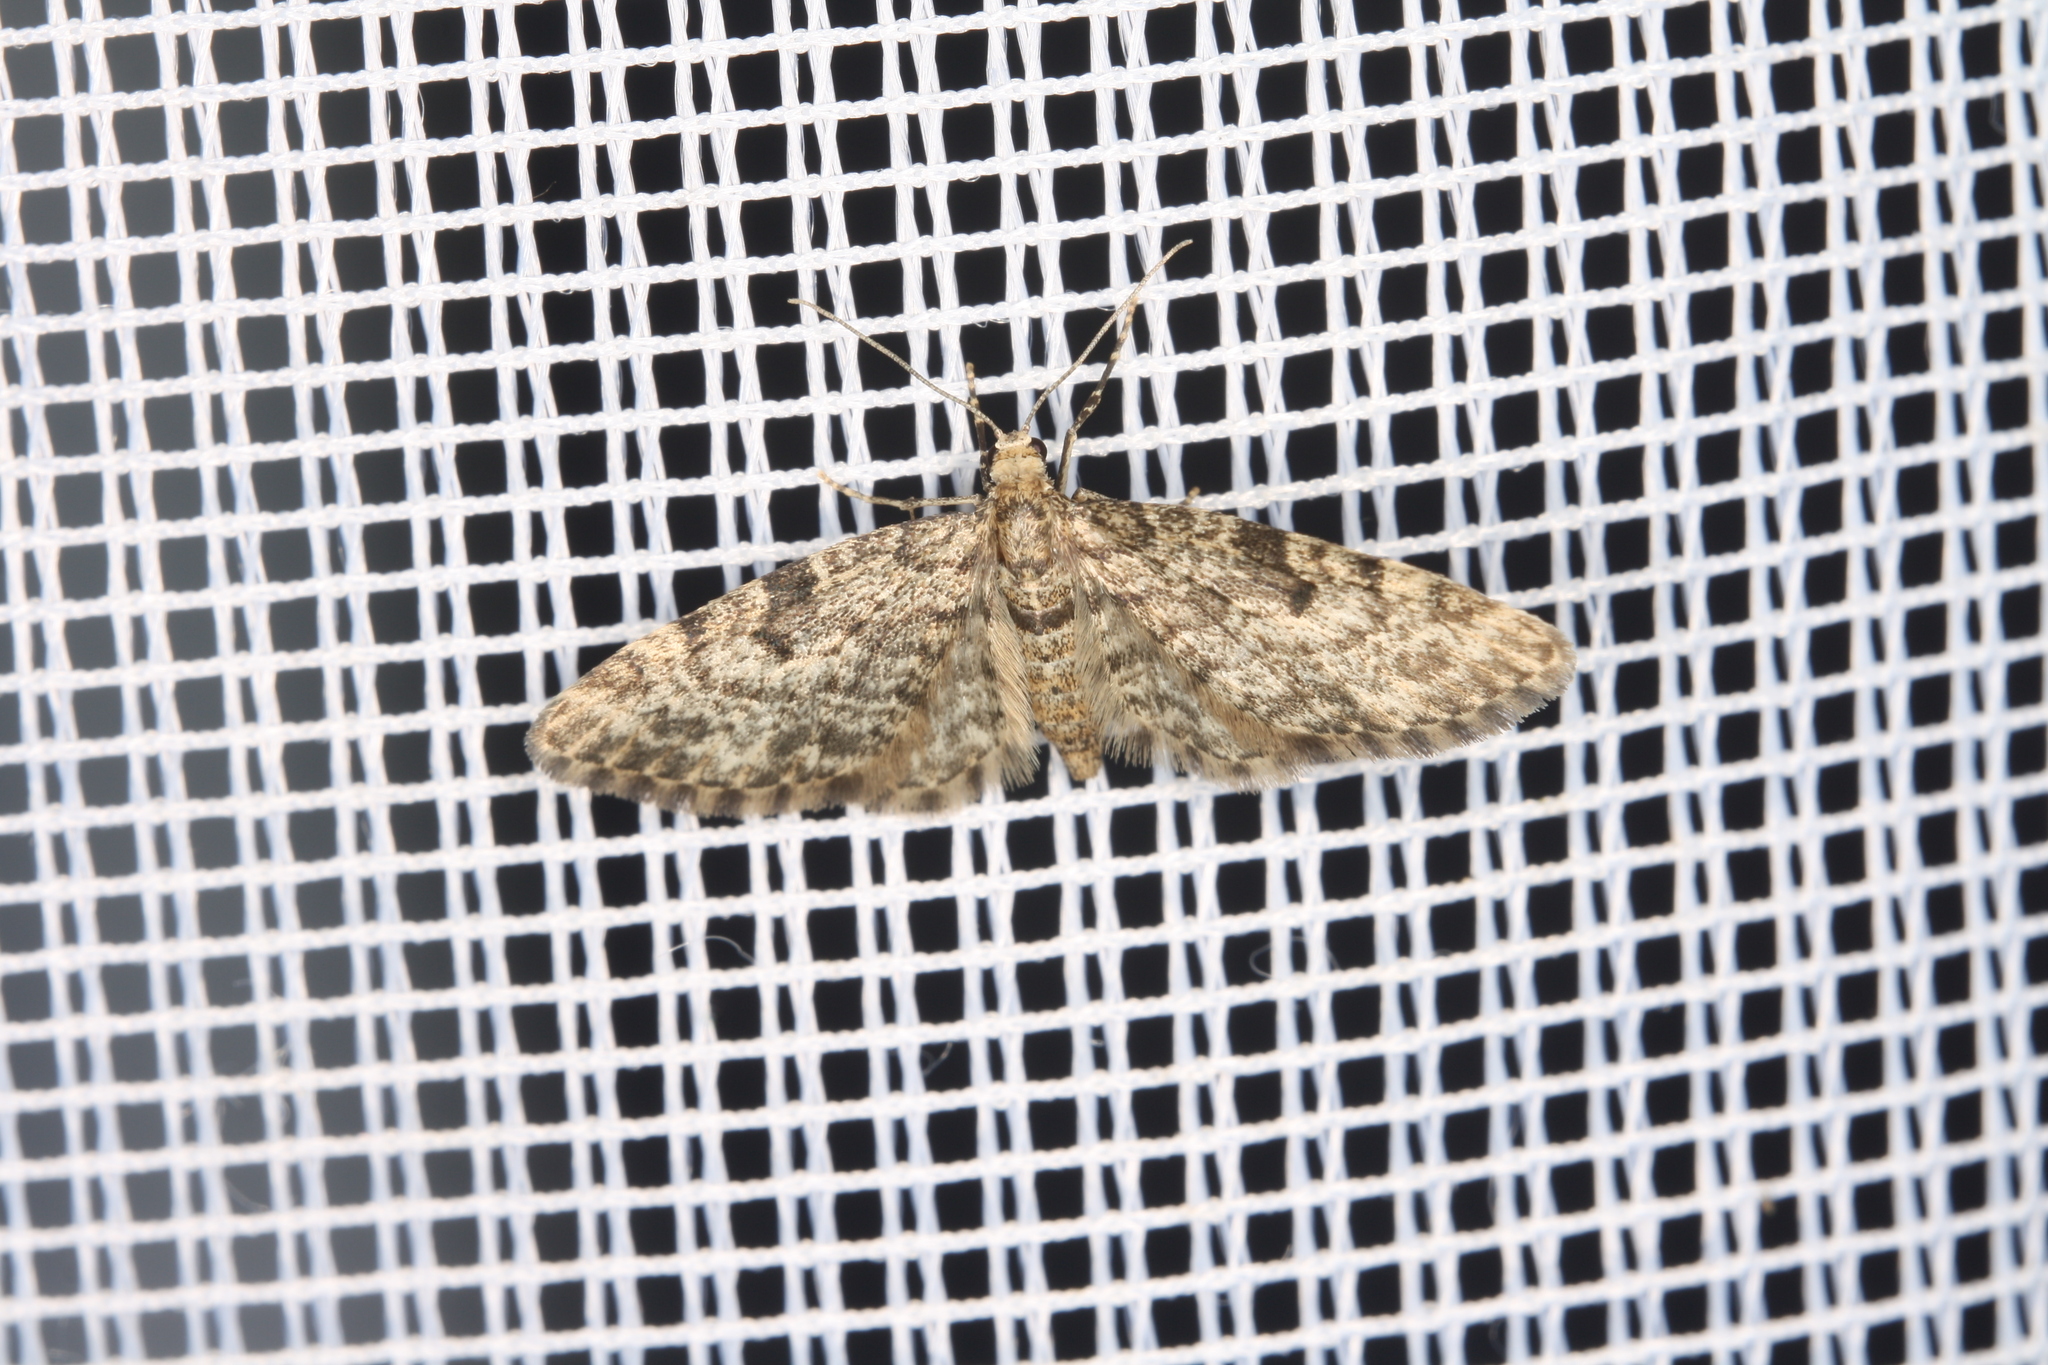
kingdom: Animalia
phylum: Arthropoda
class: Insecta
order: Lepidoptera
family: Geometridae
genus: Eupithecia
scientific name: Eupithecia tantillaria
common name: Dwarf pug
